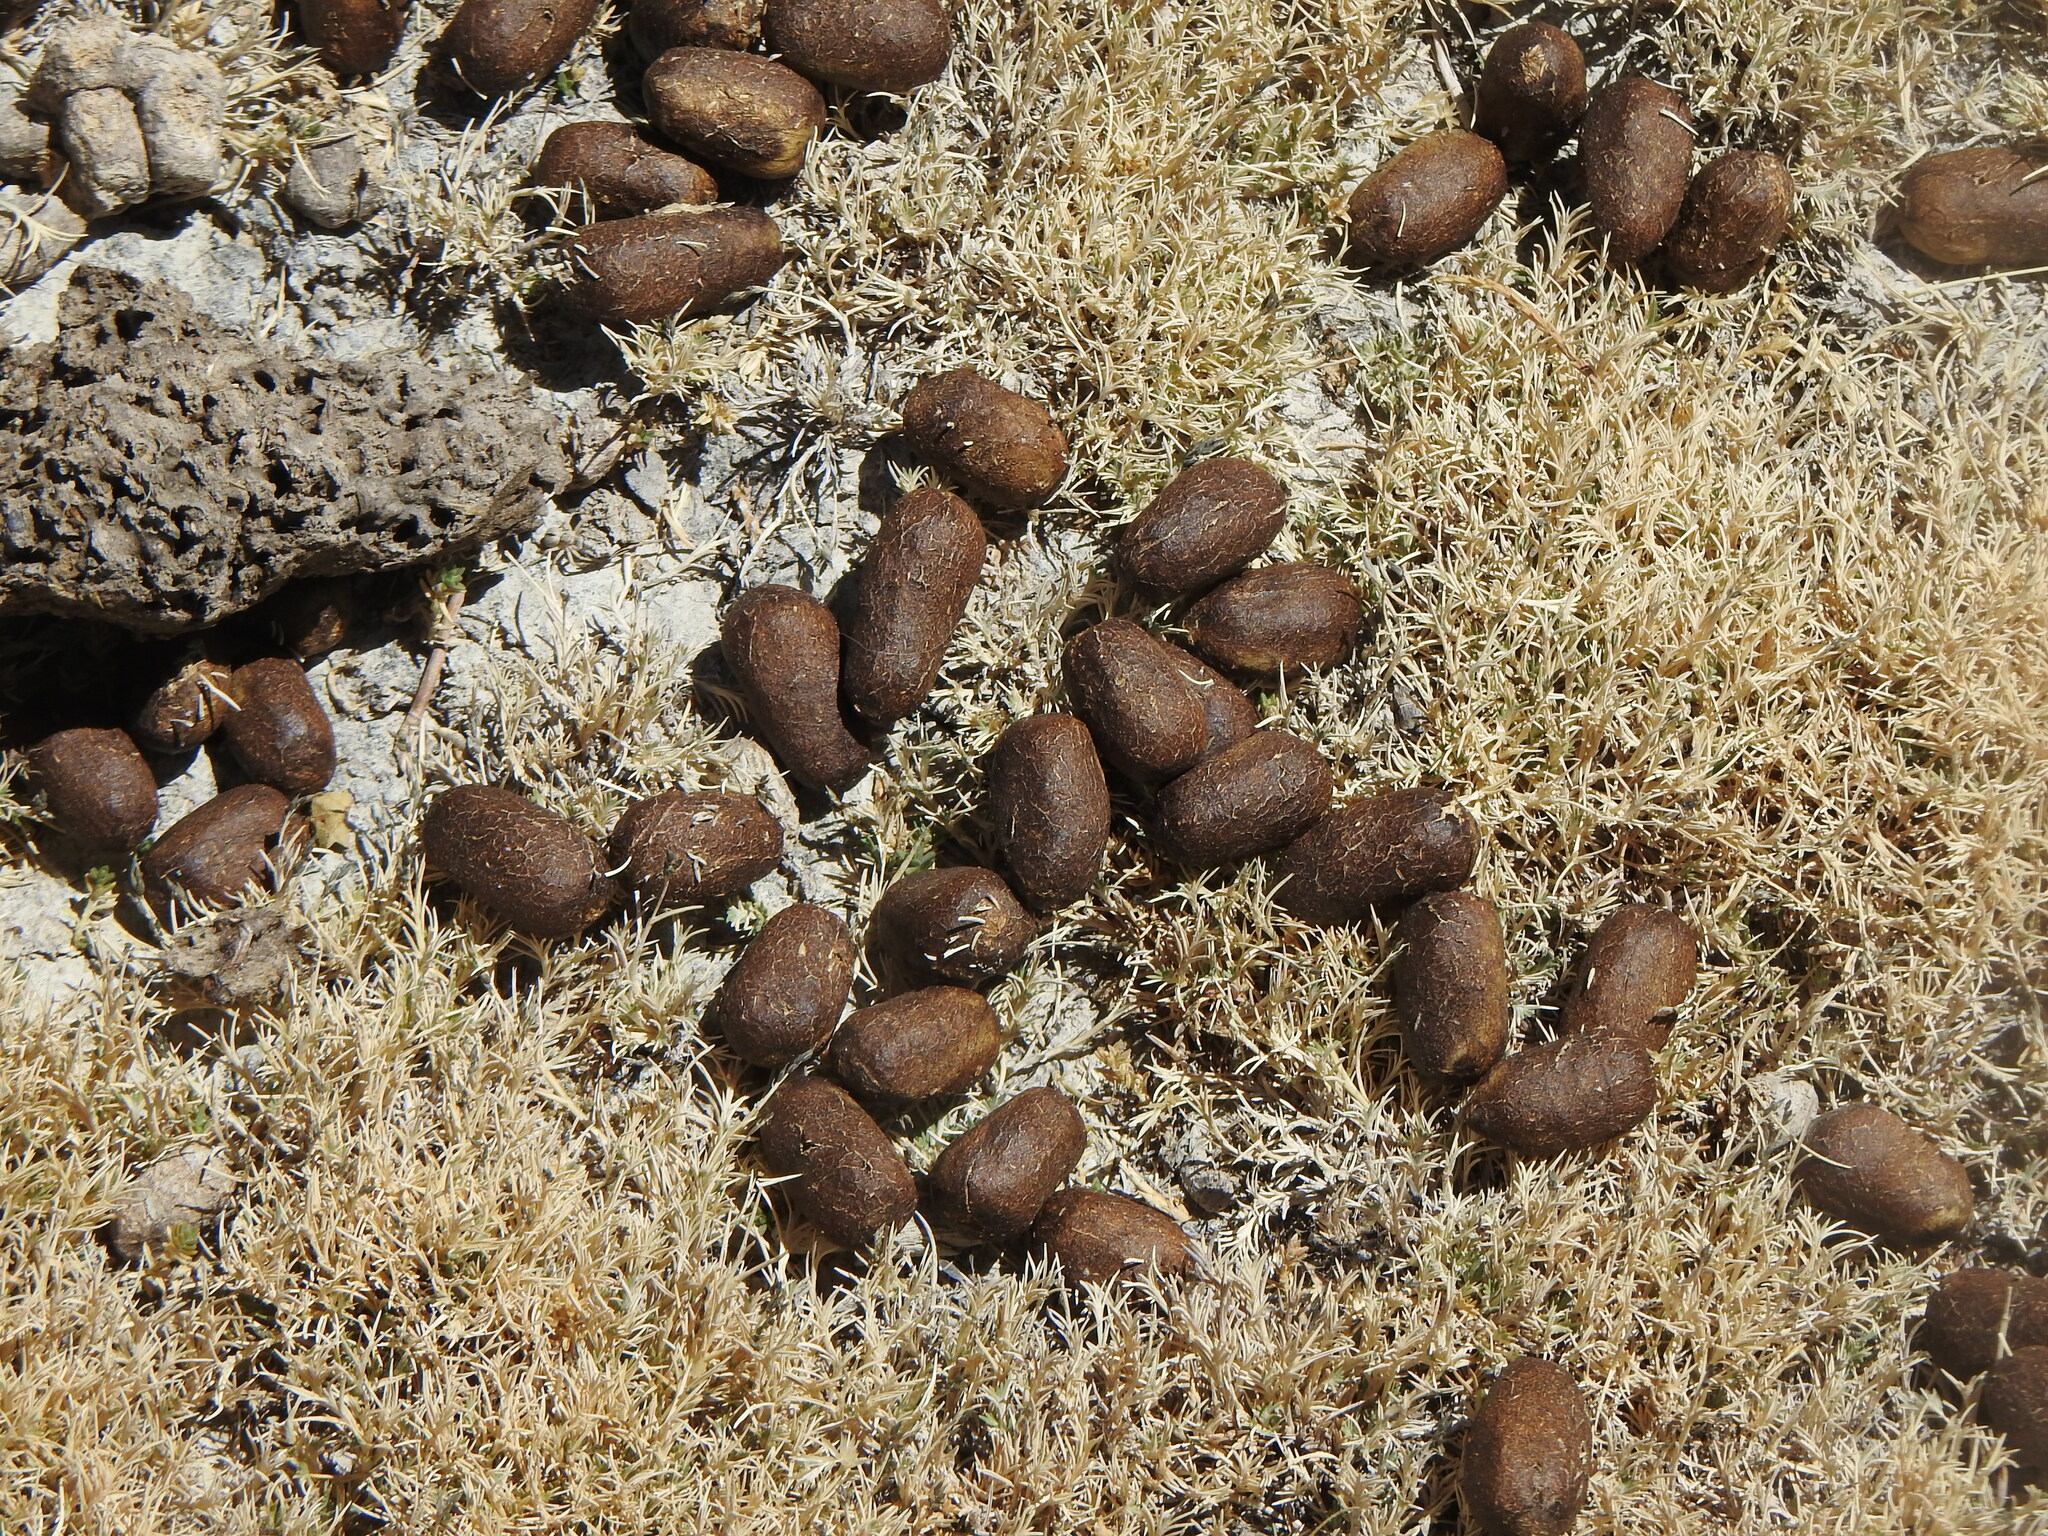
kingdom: Animalia
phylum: Chordata
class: Mammalia
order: Artiodactyla
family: Camelidae
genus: Vicugna
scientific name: Vicugna vicugna
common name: Vicugna
